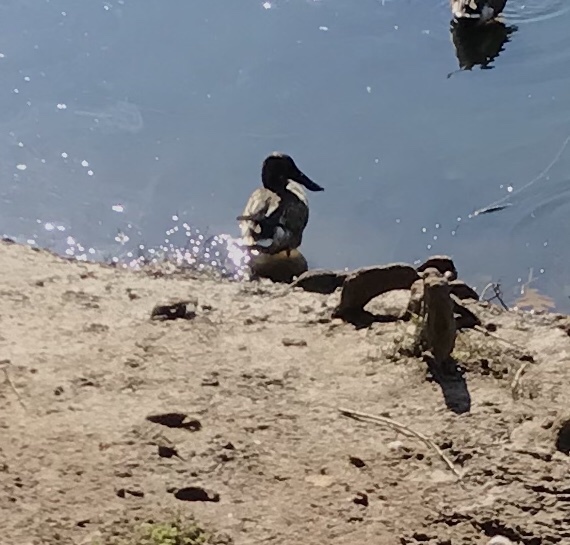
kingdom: Animalia
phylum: Chordata
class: Aves
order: Anseriformes
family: Anatidae
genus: Spatula
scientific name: Spatula clypeata
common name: Northern shoveler
